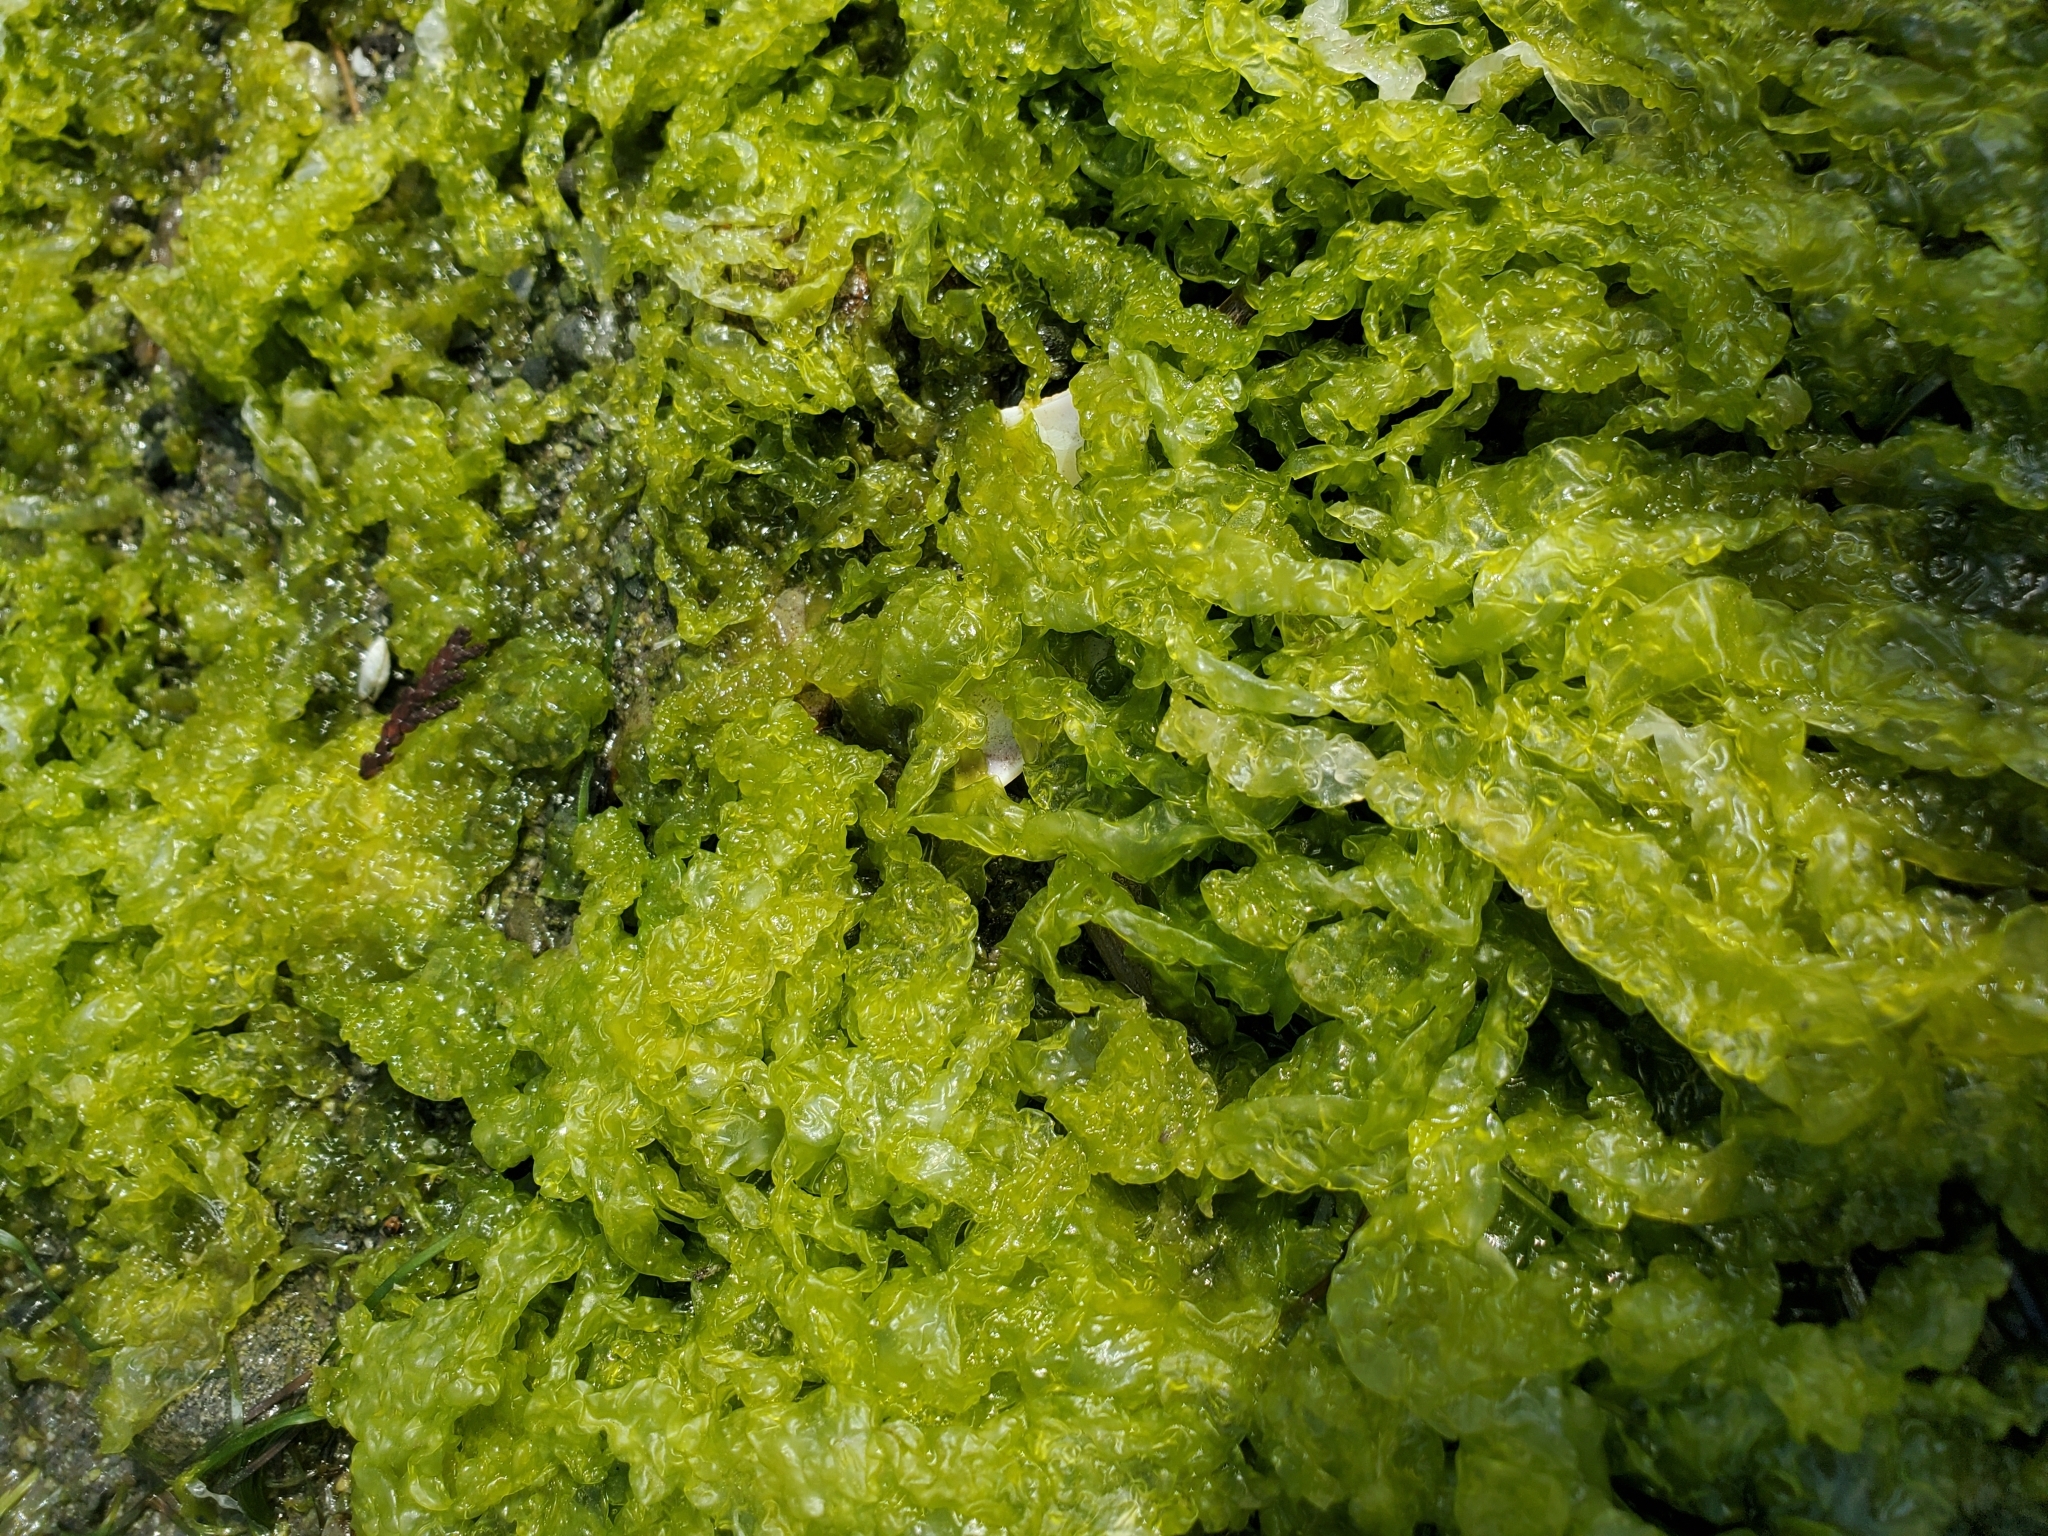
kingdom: Plantae
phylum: Chlorophyta
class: Ulvophyceae
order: Ulvales
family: Ulvaceae
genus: Ulva
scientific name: Ulva intestinalis
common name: Gut weed
